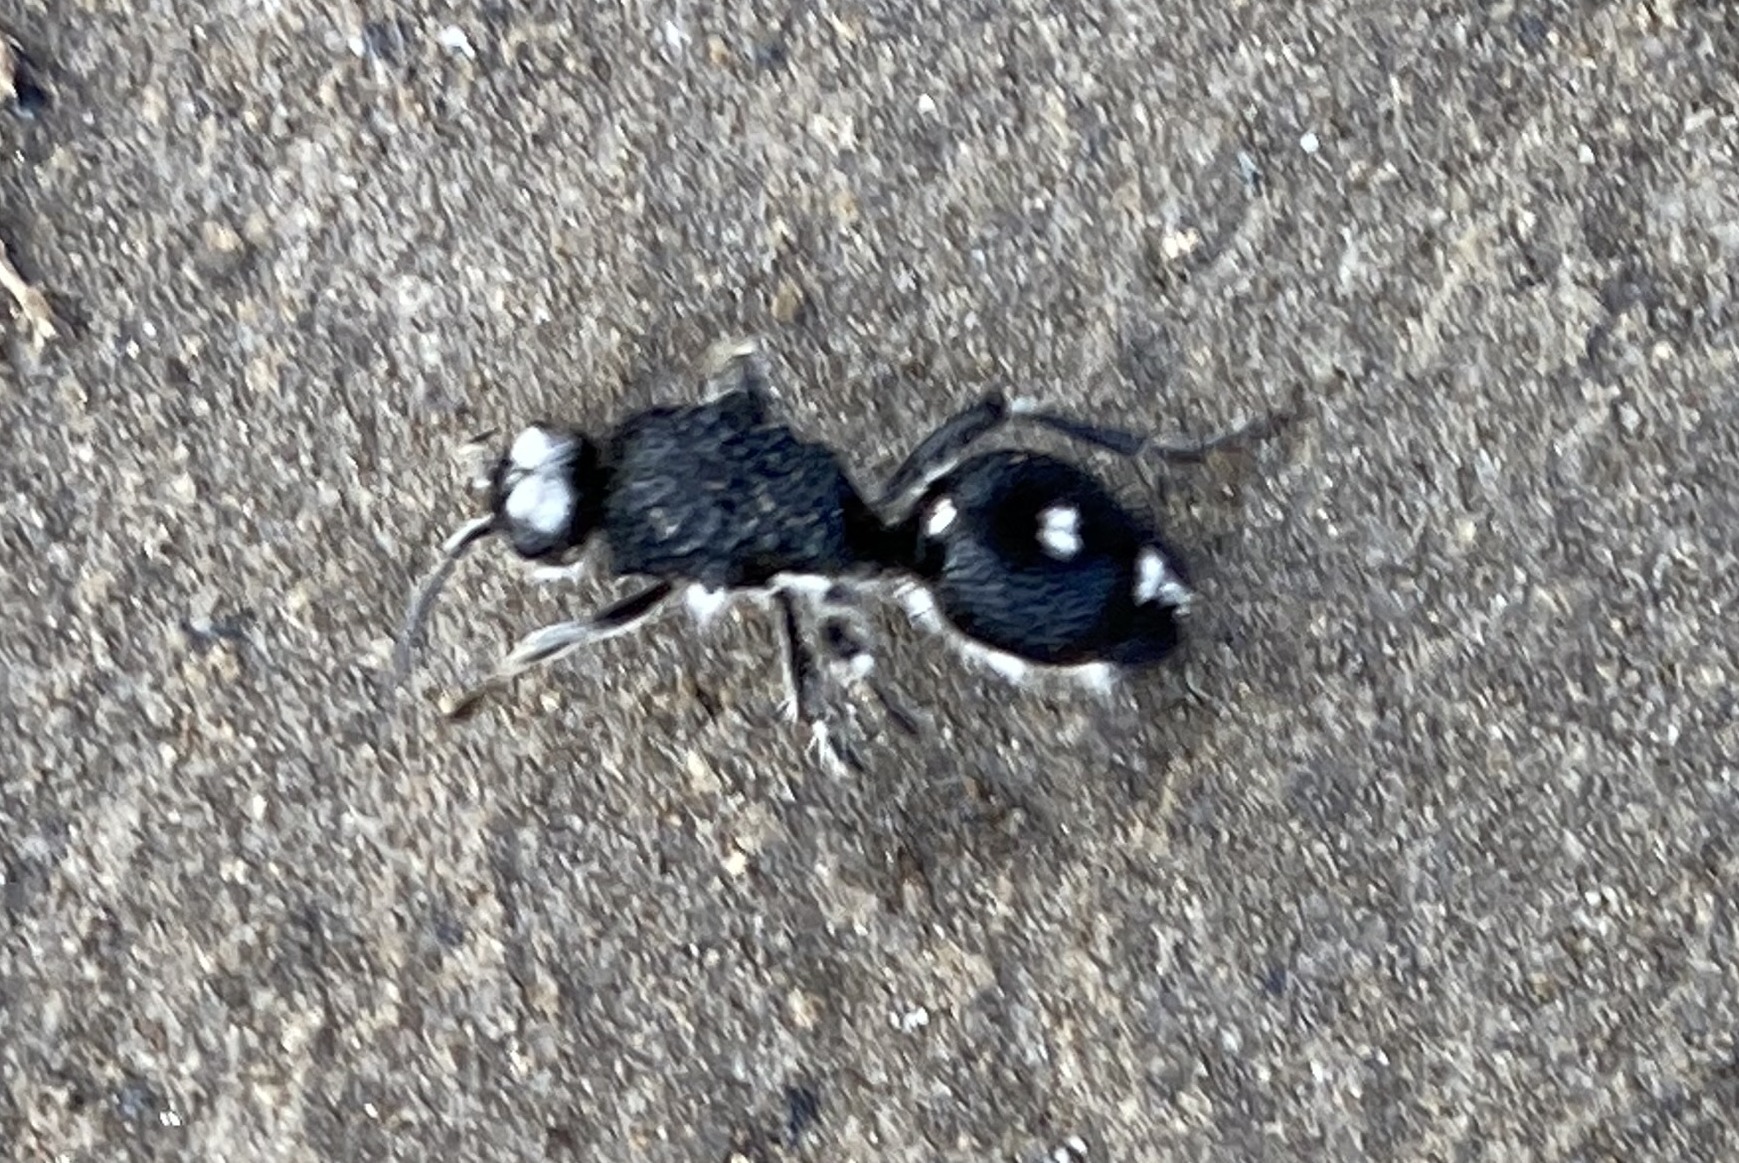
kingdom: Animalia
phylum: Arthropoda
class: Insecta
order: Hymenoptera
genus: Bothriomutilla
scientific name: Bothriomutilla
